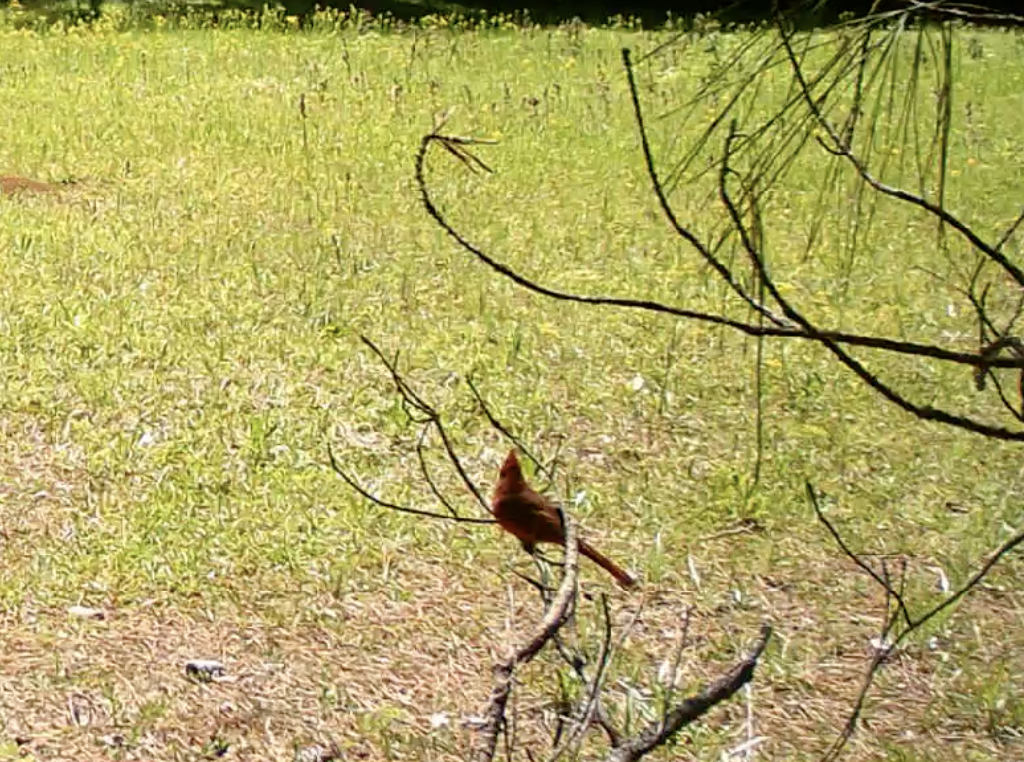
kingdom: Animalia
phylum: Chordata
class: Aves
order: Passeriformes
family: Cardinalidae
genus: Cardinalis
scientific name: Cardinalis cardinalis
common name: Northern cardinal
